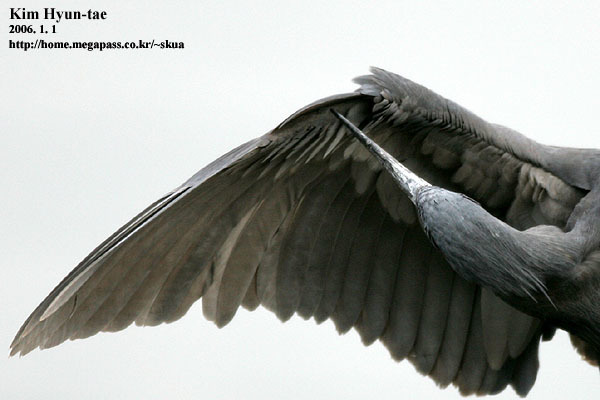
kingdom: Animalia
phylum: Chordata
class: Aves
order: Pelecaniformes
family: Ardeidae
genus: Egretta
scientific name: Egretta sacra
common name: Pacific reef heron
